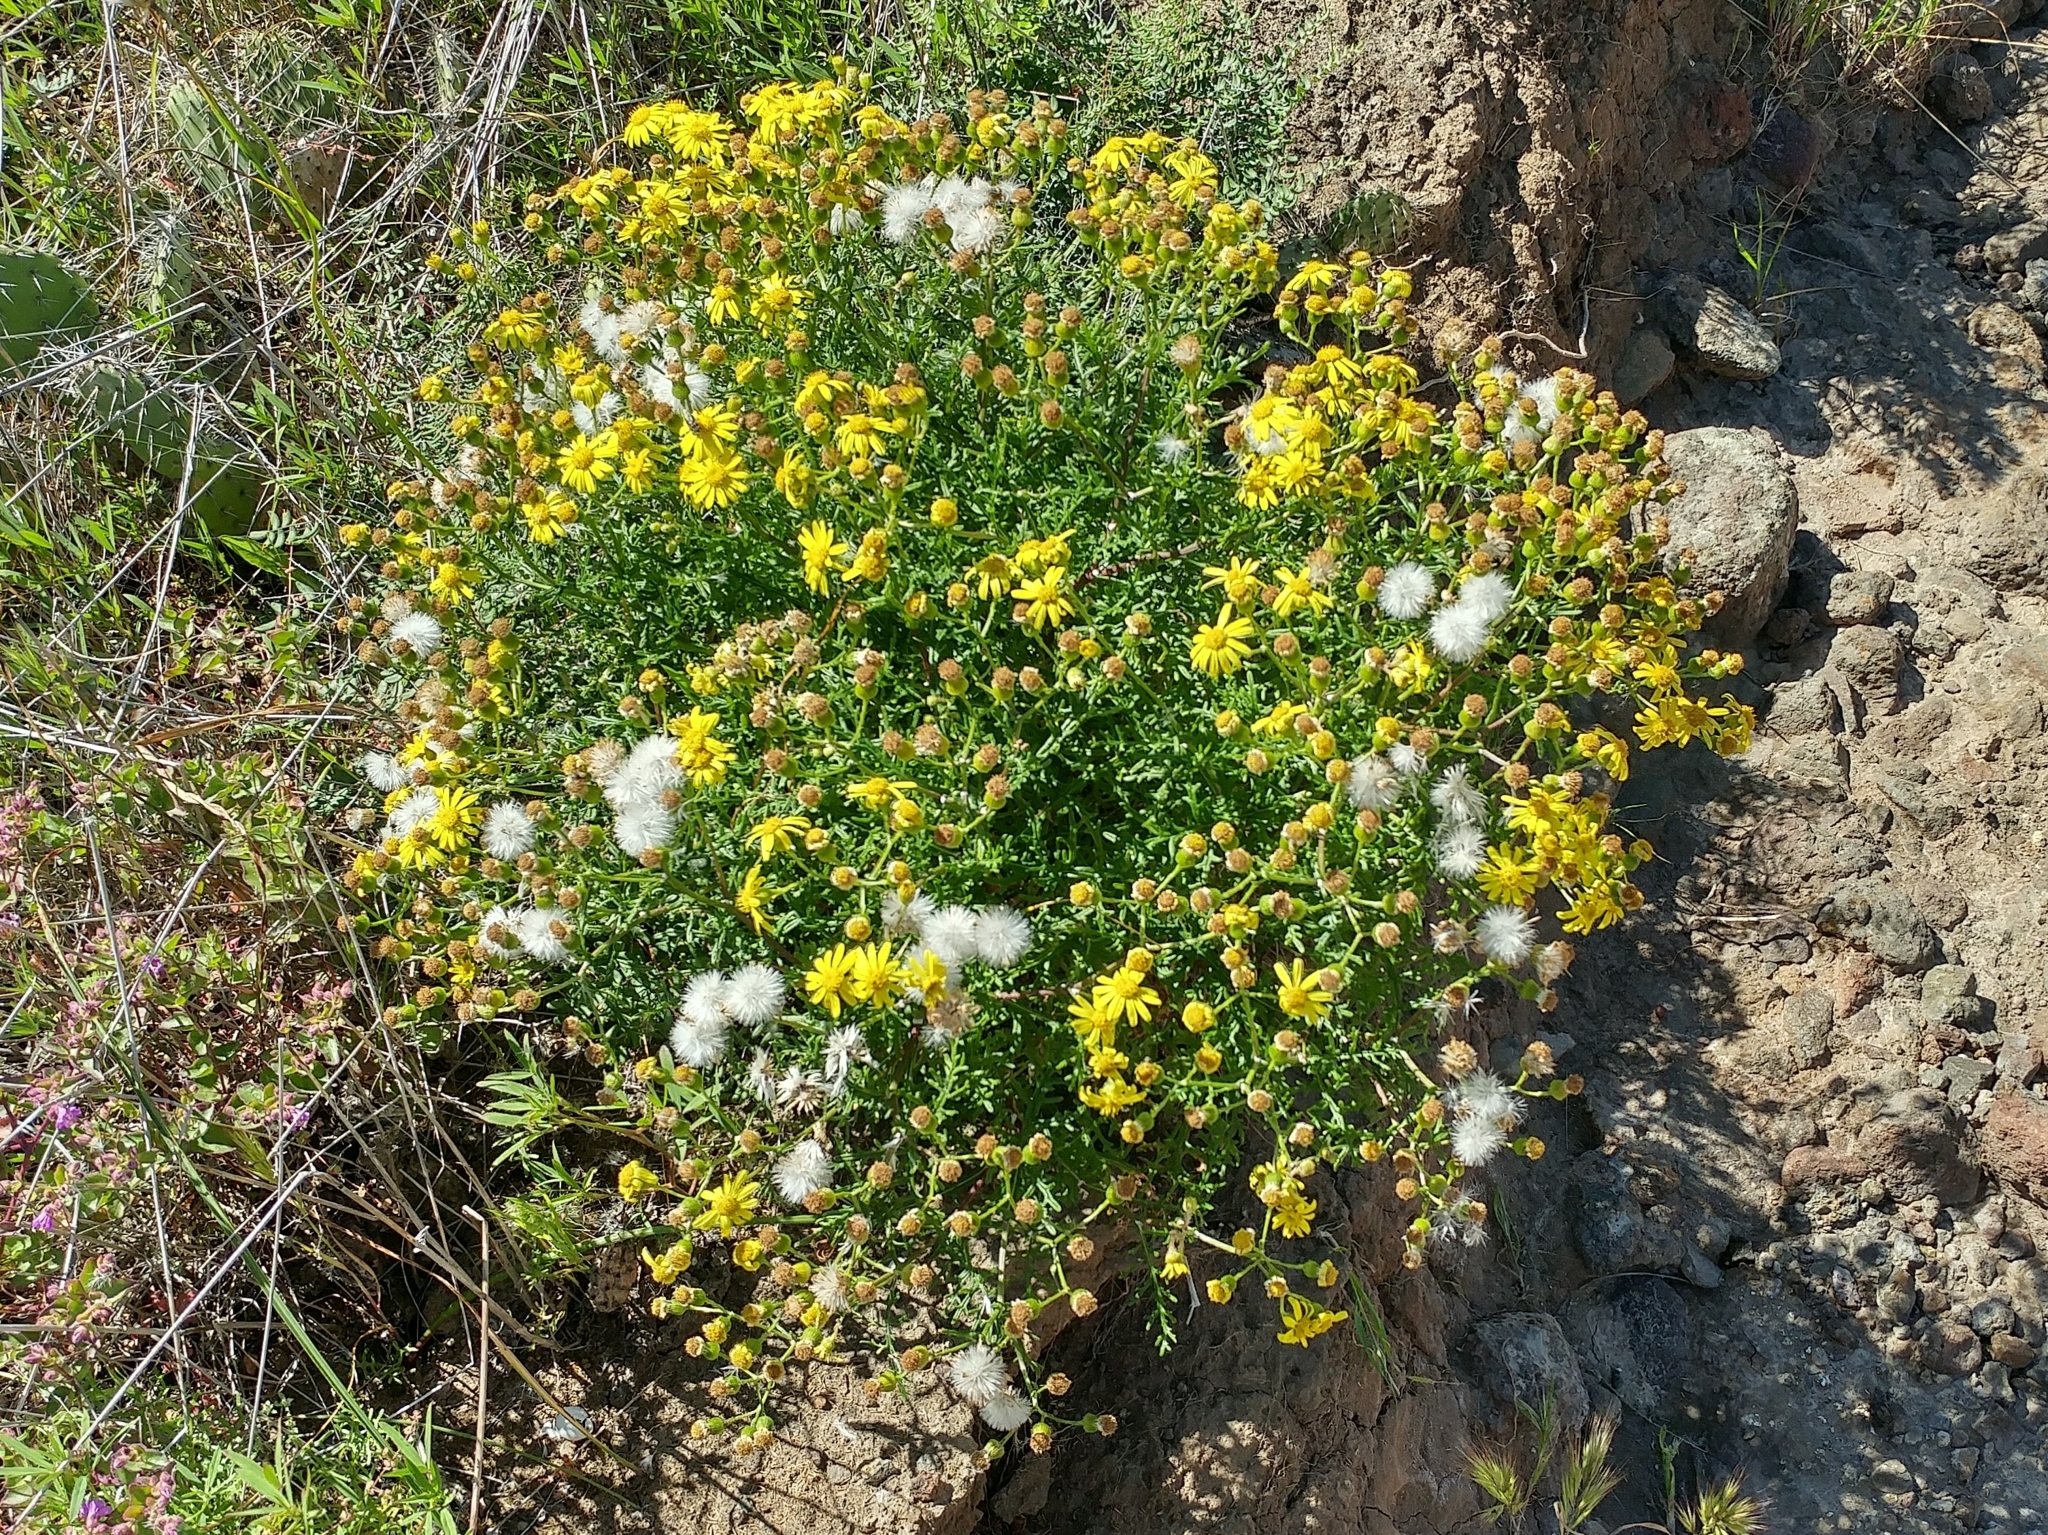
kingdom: Plantae
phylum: Tracheophyta
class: Magnoliopsida
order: Asterales
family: Asteraceae
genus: Senecio
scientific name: Senecio lyonii
